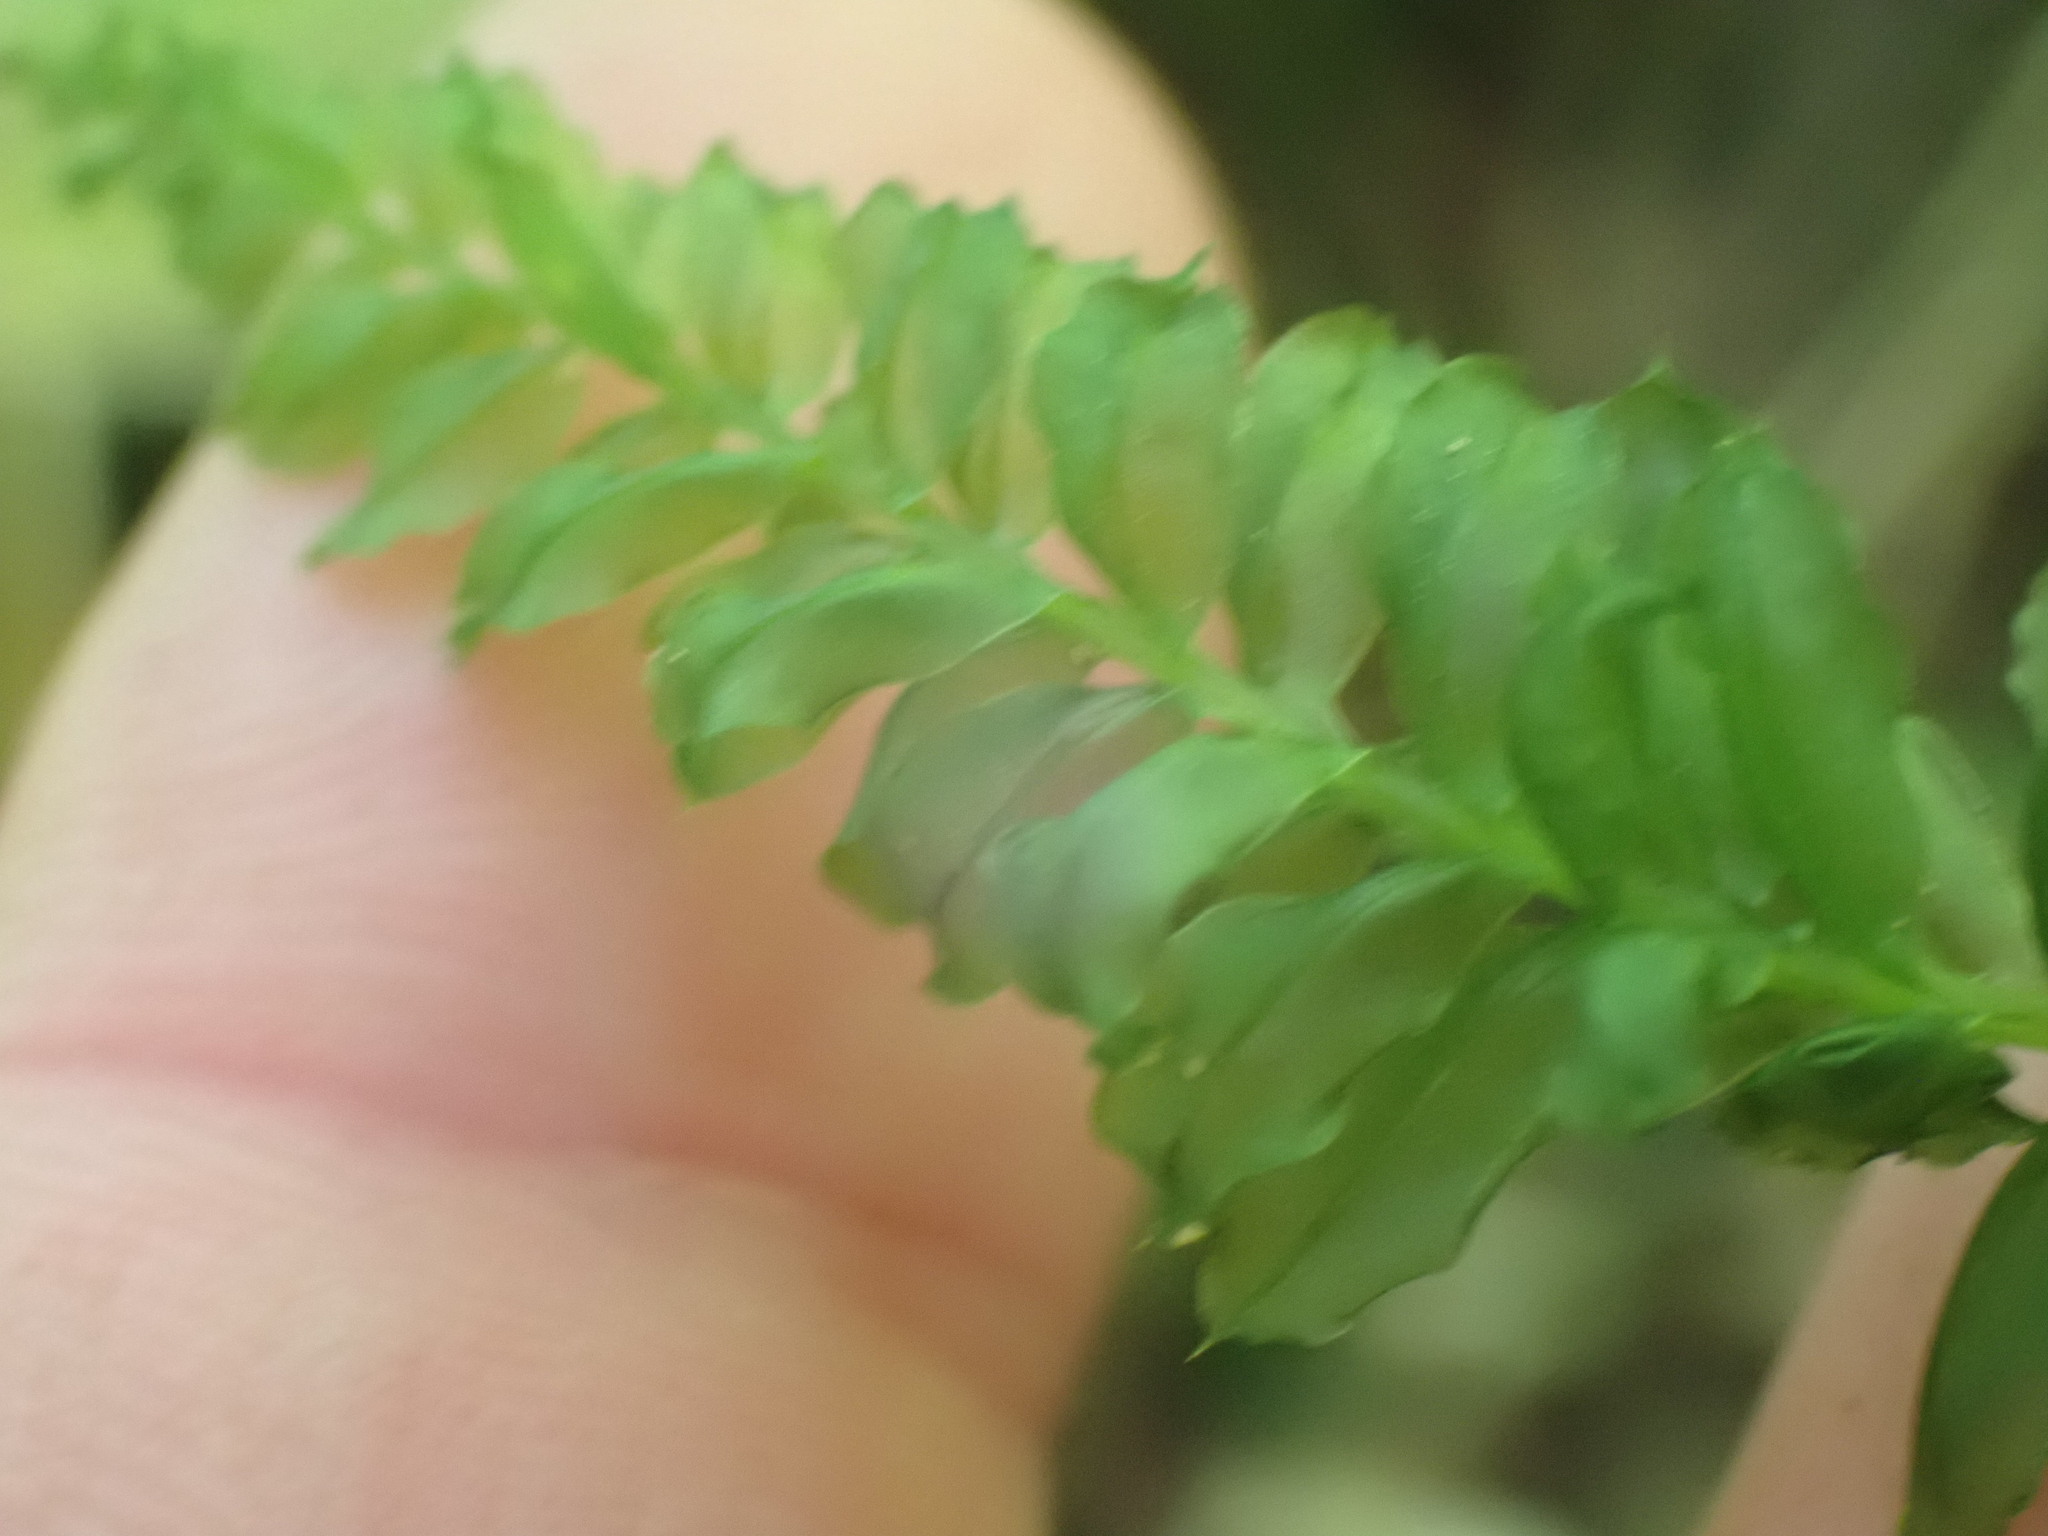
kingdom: Plantae
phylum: Bryophyta
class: Bryopsida
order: Bryales
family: Mniaceae
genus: Plagiomnium
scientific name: Plagiomnium insigne
